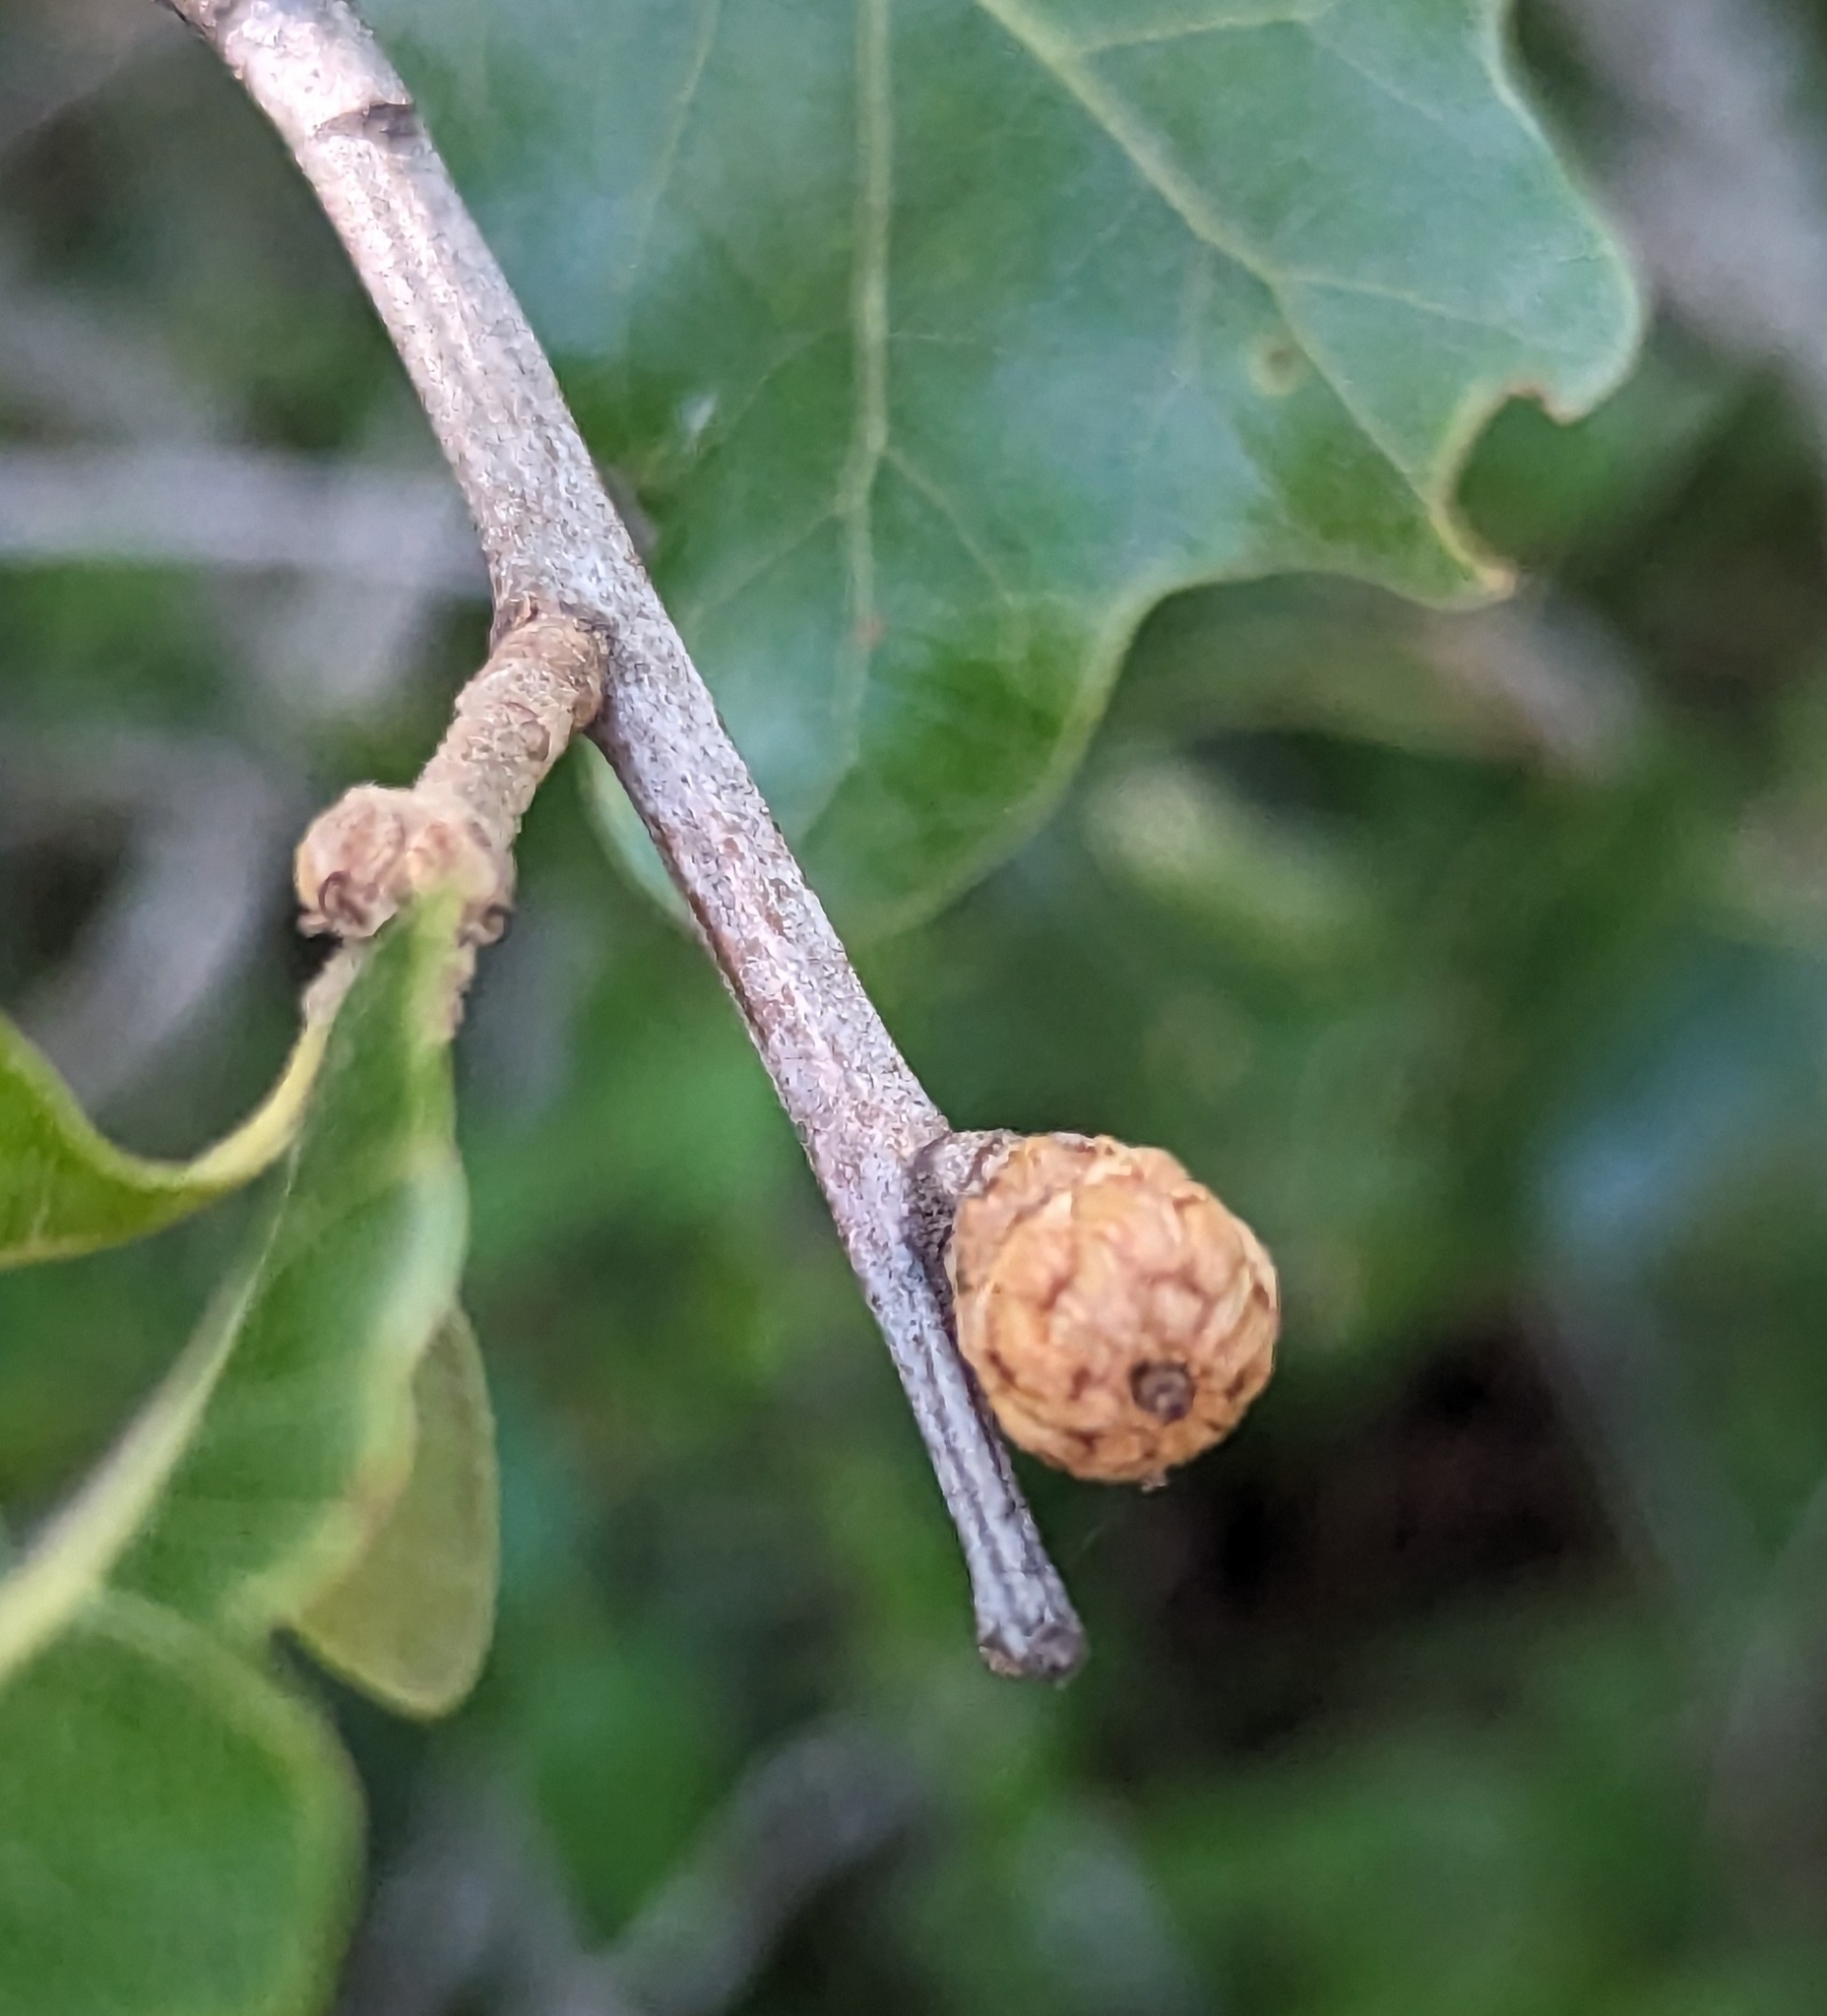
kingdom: Plantae
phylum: Tracheophyta
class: Magnoliopsida
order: Fagales
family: Fagaceae
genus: Quercus
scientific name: Quercus marilandica
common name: Blackjack oak
